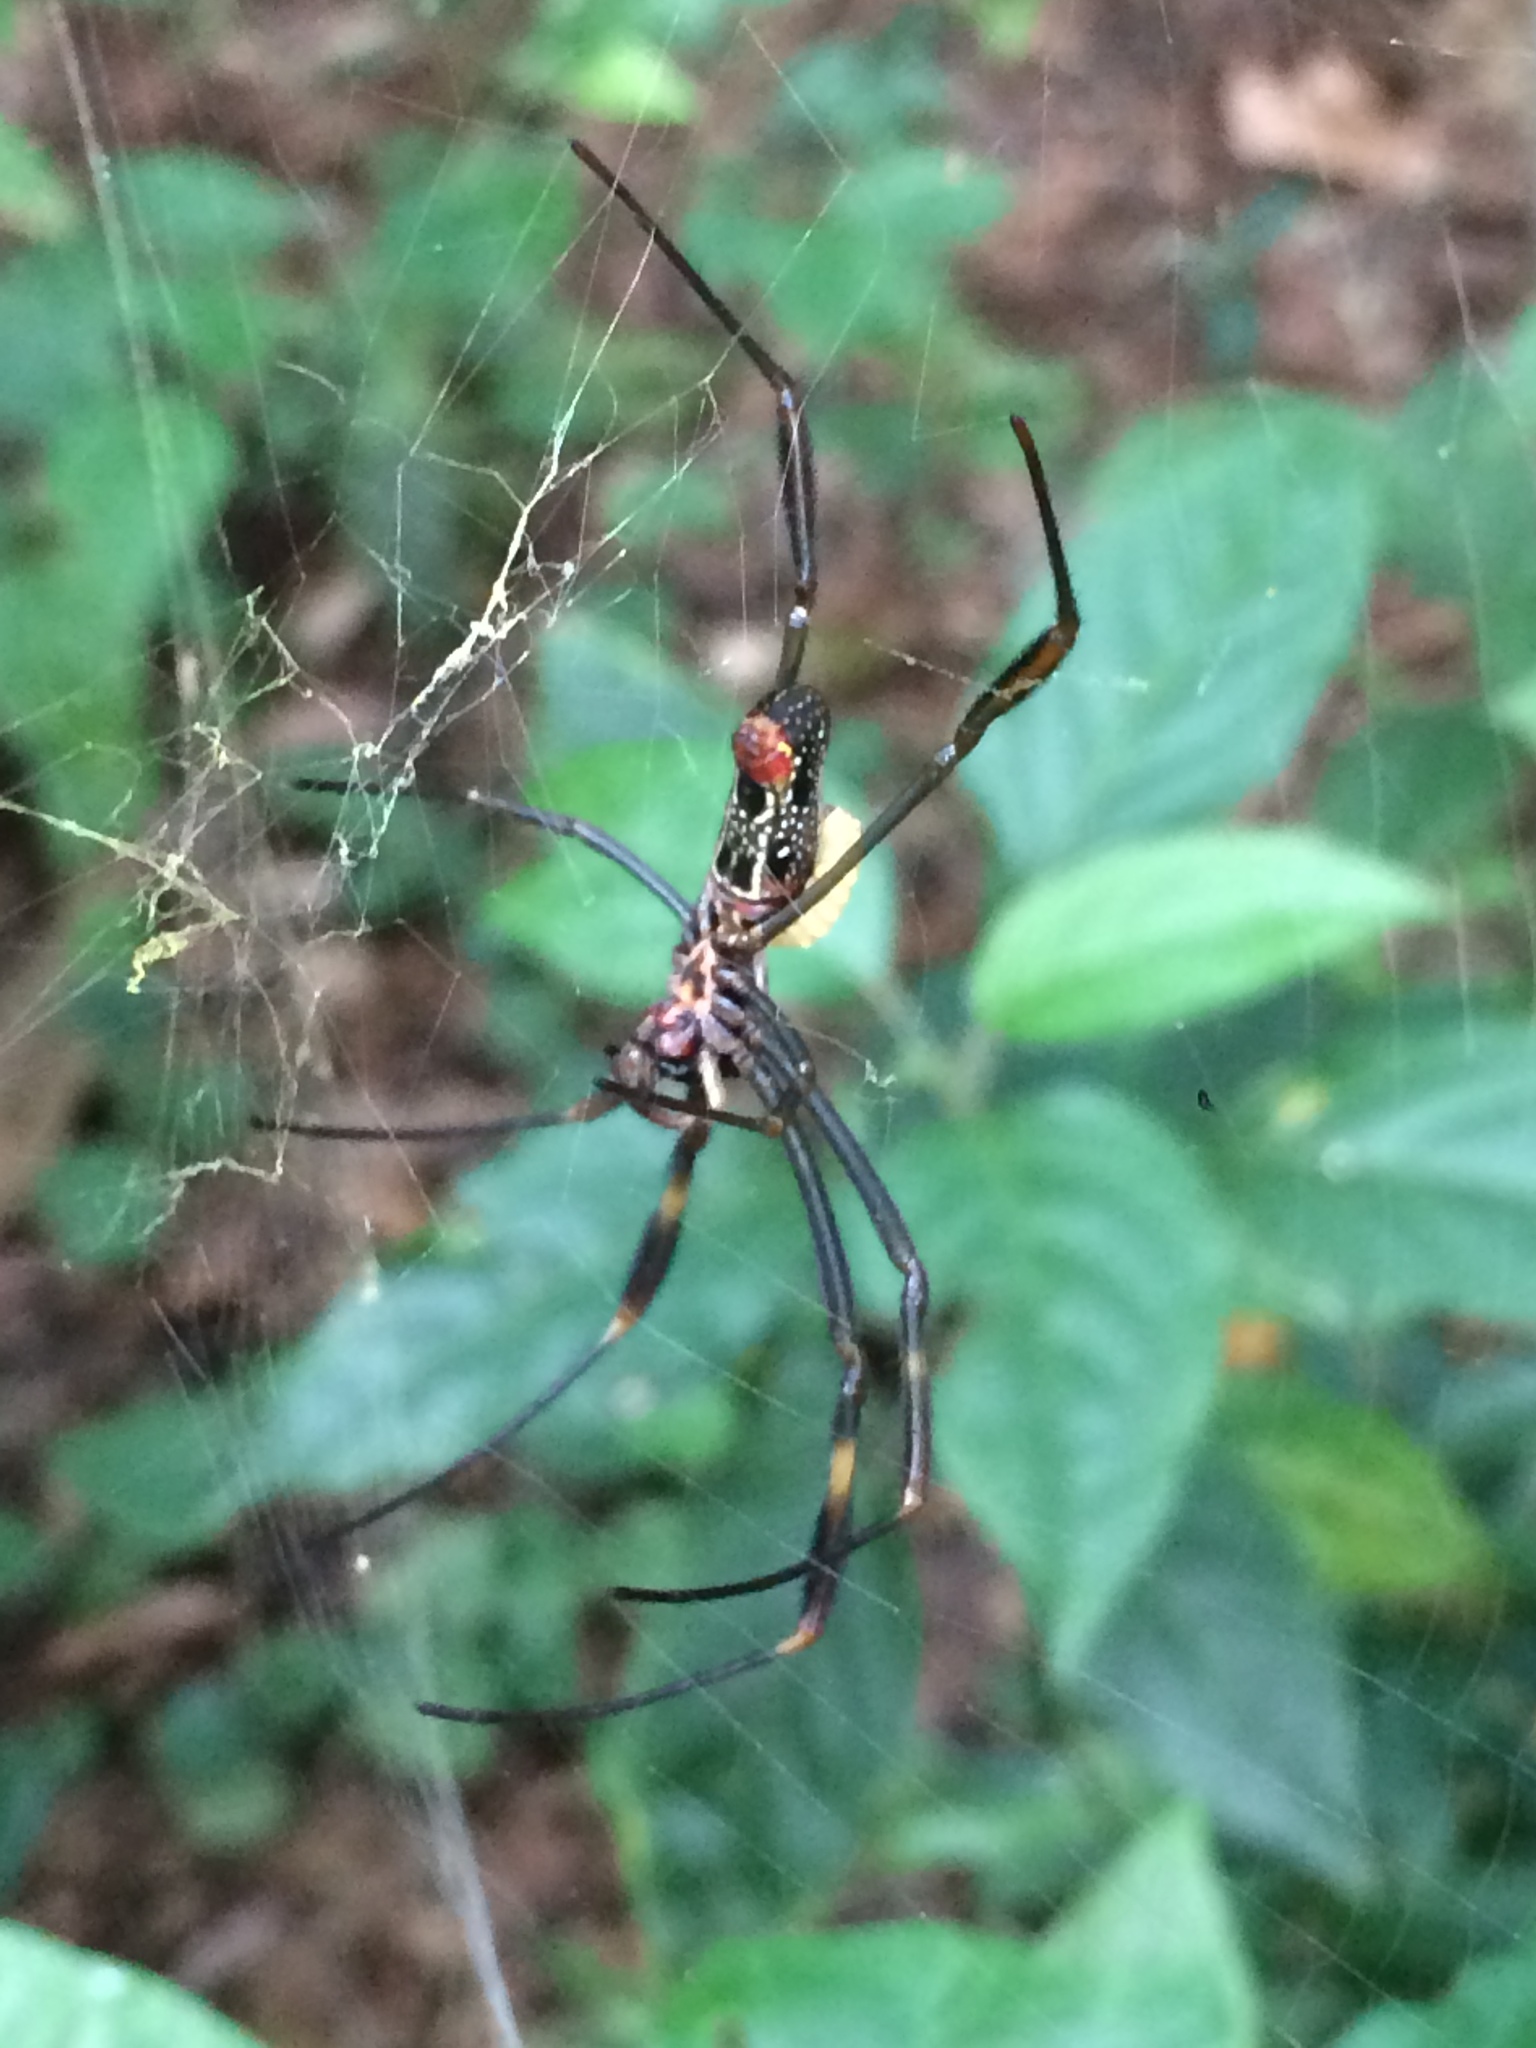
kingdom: Animalia
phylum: Arthropoda
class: Arachnida
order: Araneae
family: Araneidae
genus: Trichonephila
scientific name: Trichonephila clavipes
